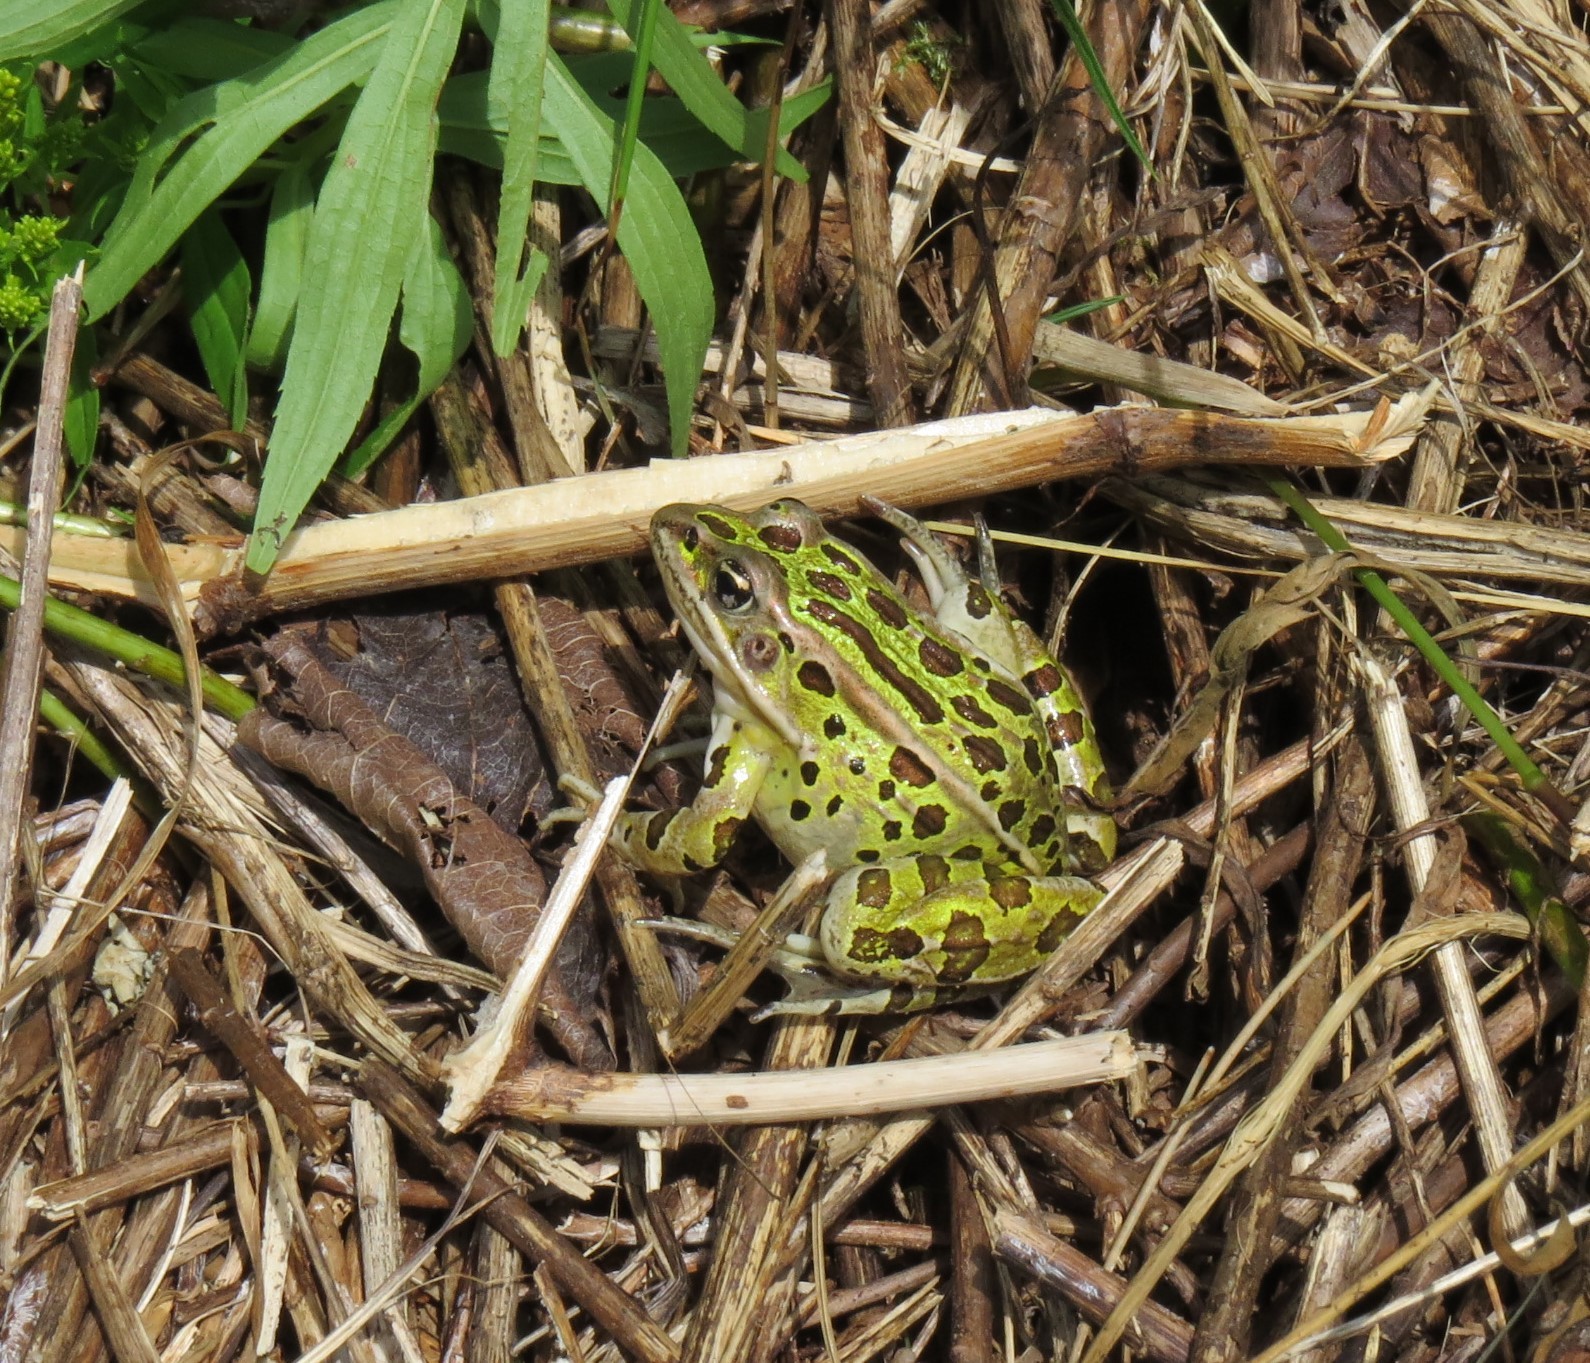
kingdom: Animalia
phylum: Chordata
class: Amphibia
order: Anura
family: Ranidae
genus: Lithobates
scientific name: Lithobates pipiens
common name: Northern leopard frog
